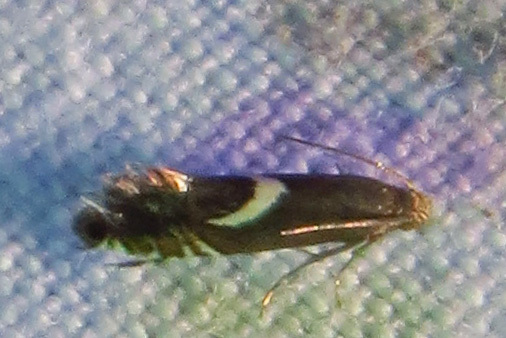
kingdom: Animalia
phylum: Arthropoda
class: Insecta
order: Lepidoptera
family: Glyphipterigidae
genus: Glyphipterix
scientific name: Glyphipterix Diploschizia impigritella
